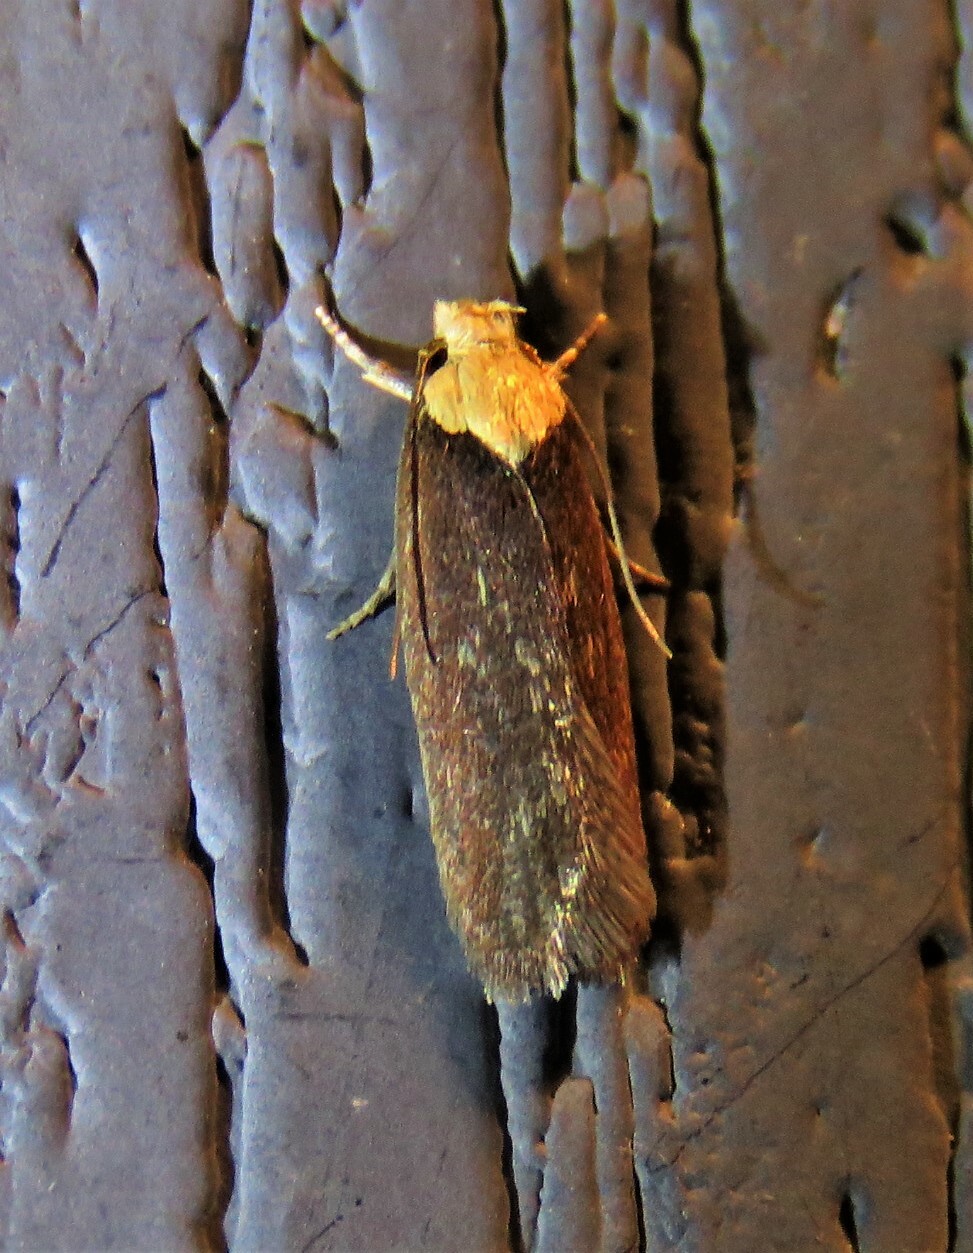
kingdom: Animalia
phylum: Arthropoda
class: Insecta
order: Lepidoptera
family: Depressariidae
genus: Depressaria
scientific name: Depressaria depressana
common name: Lost flat-body
